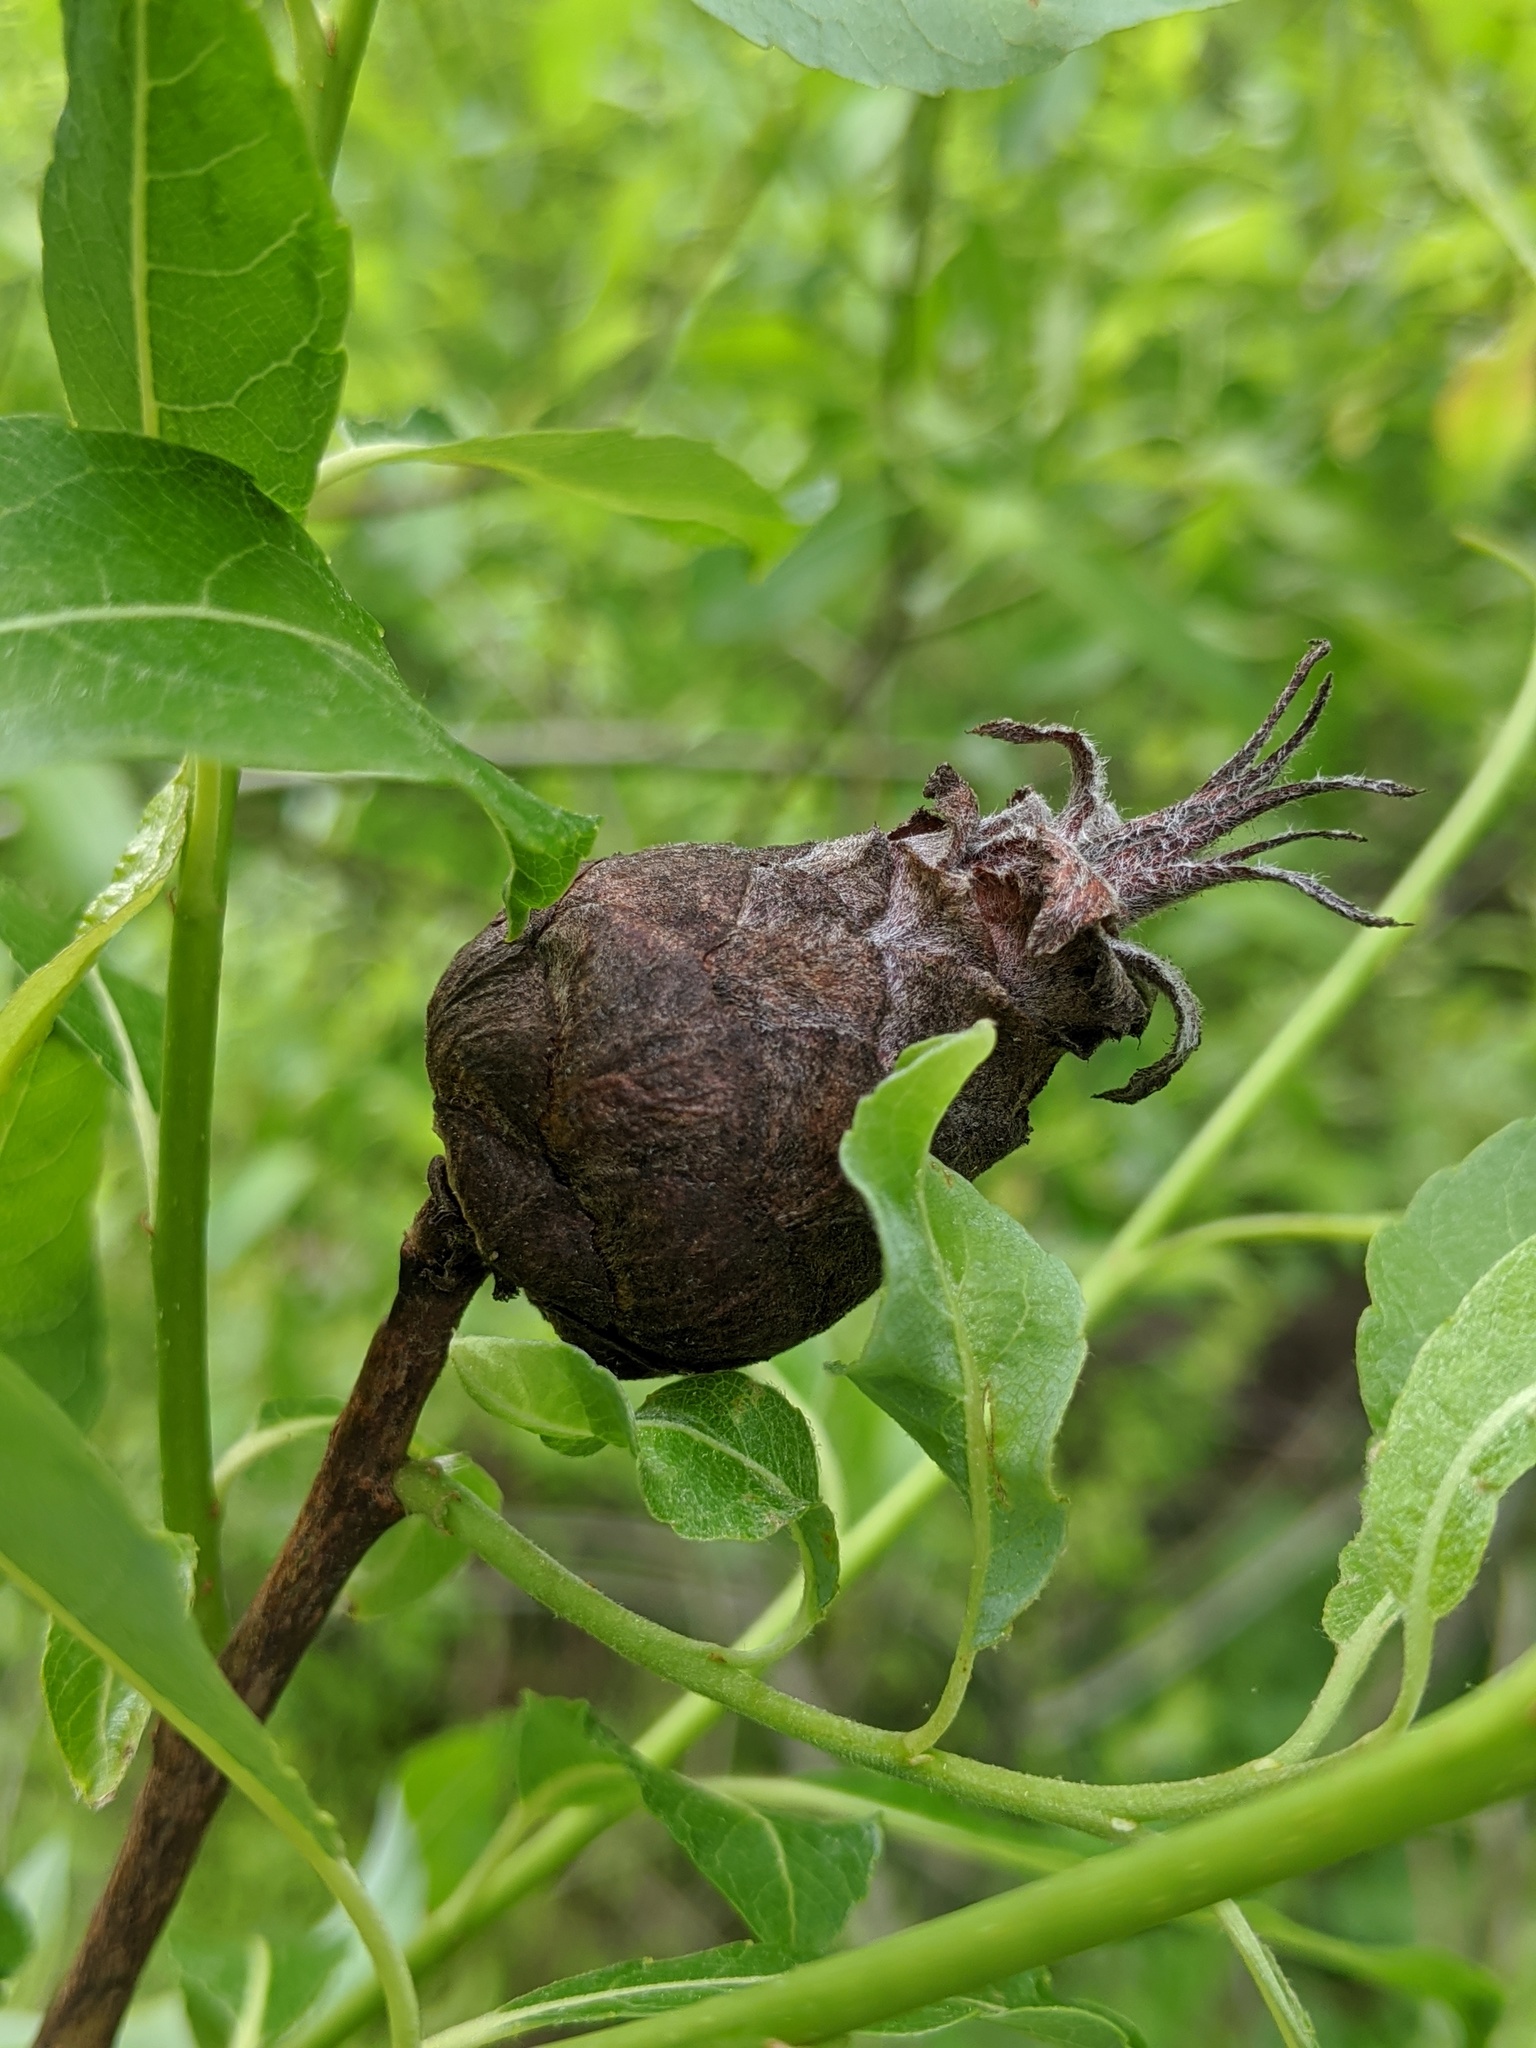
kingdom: Animalia
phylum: Arthropoda
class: Insecta
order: Diptera
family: Cecidomyiidae
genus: Rabdophaga
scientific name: Rabdophaga strobiloides
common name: Willow pinecone gall midge
